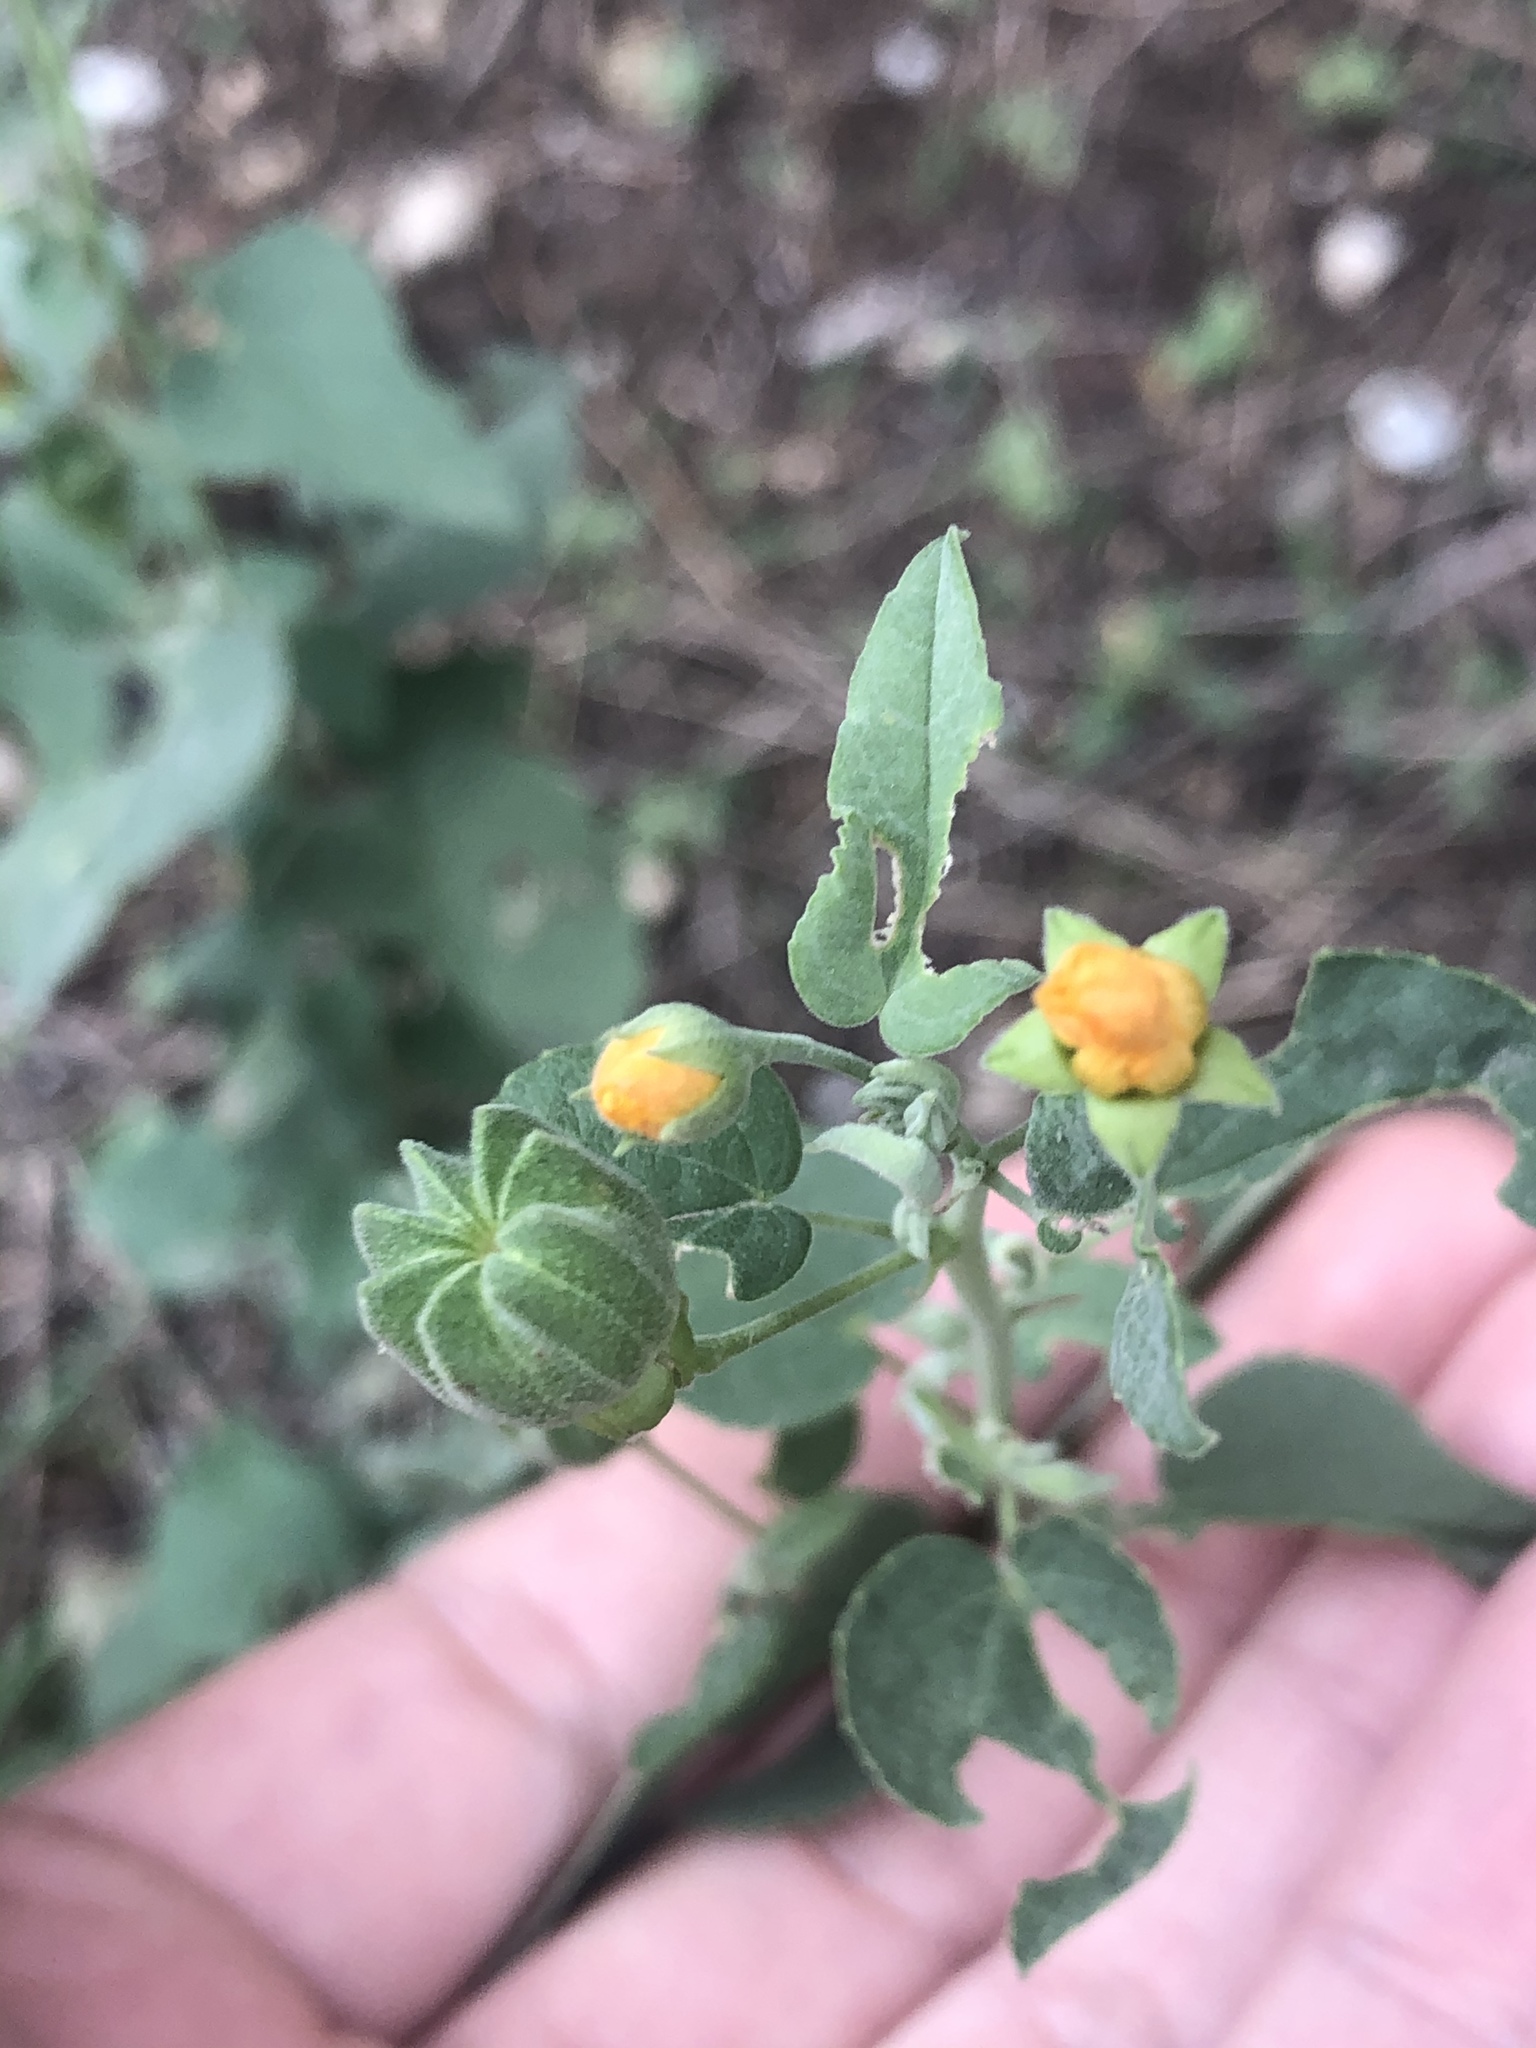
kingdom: Plantae
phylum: Tracheophyta
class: Magnoliopsida
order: Malvales
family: Malvaceae
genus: Abutilon
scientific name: Abutilon fruticosum
